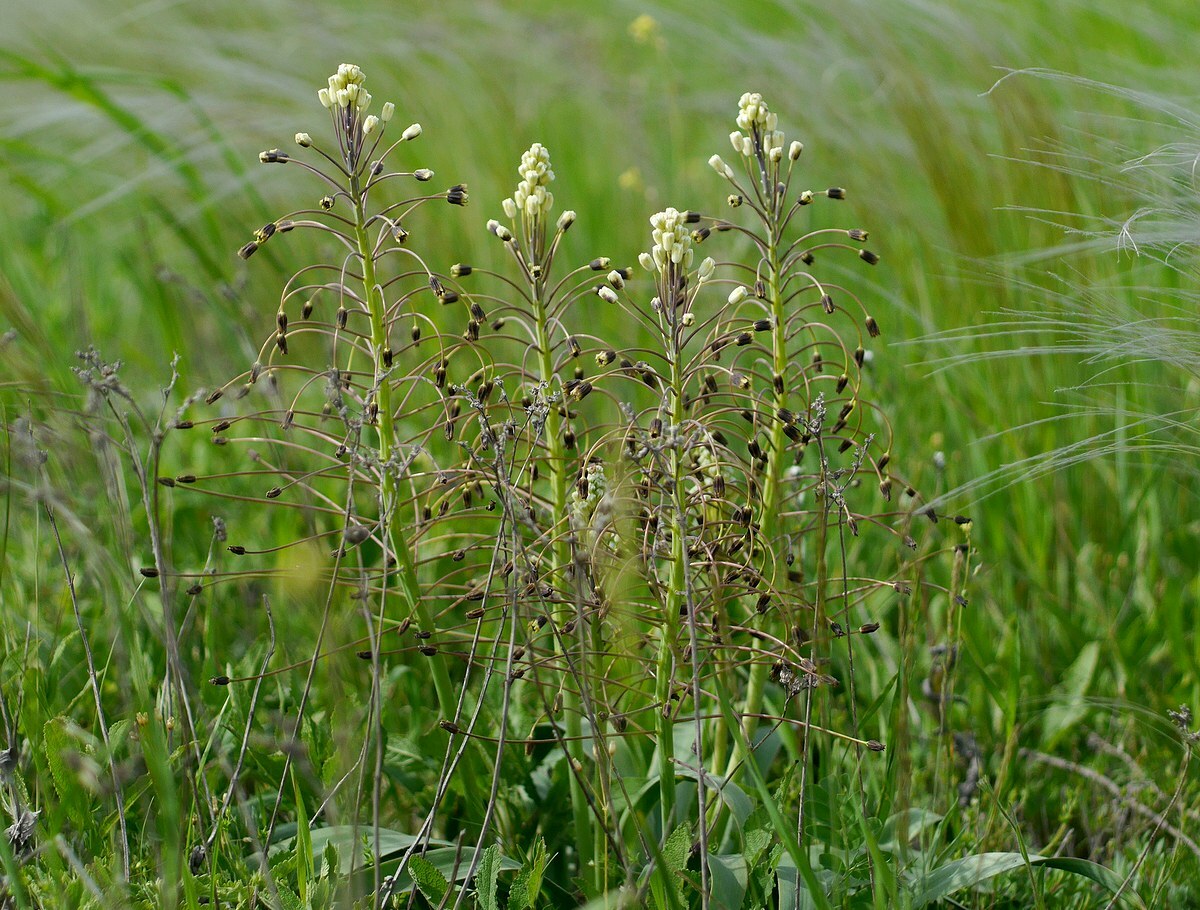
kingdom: Plantae
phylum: Tracheophyta
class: Liliopsida
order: Asparagales
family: Asparagaceae
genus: Bellevalia
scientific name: Bellevalia speciosa
